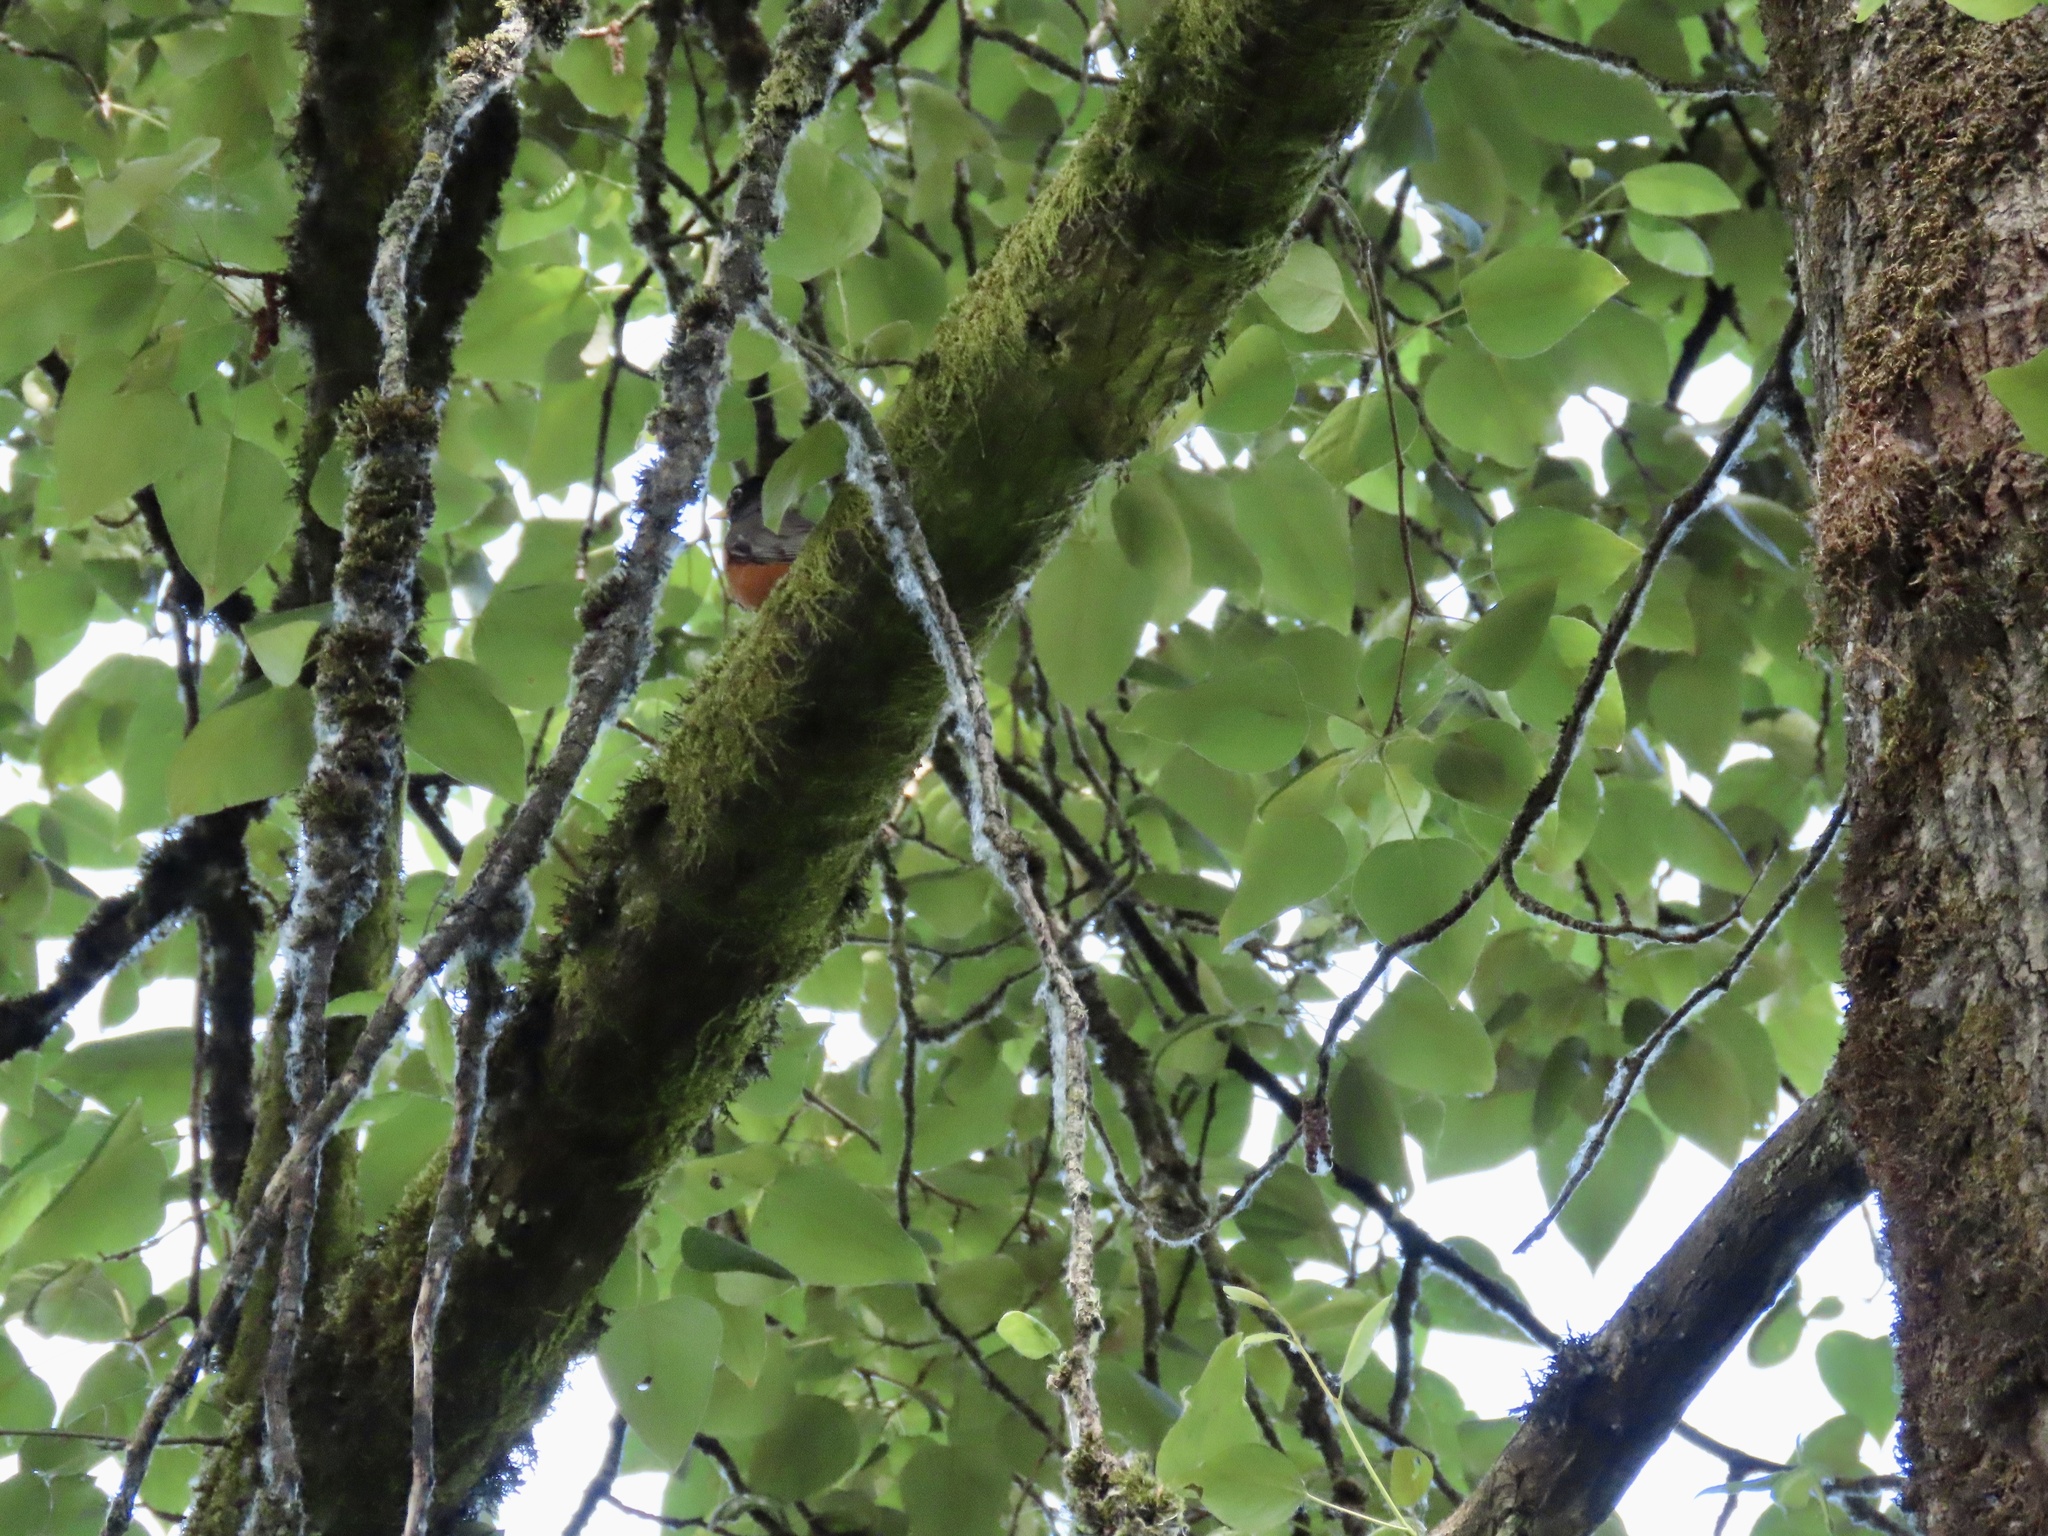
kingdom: Animalia
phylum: Chordata
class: Aves
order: Passeriformes
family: Turdidae
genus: Turdus
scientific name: Turdus migratorius
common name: American robin
